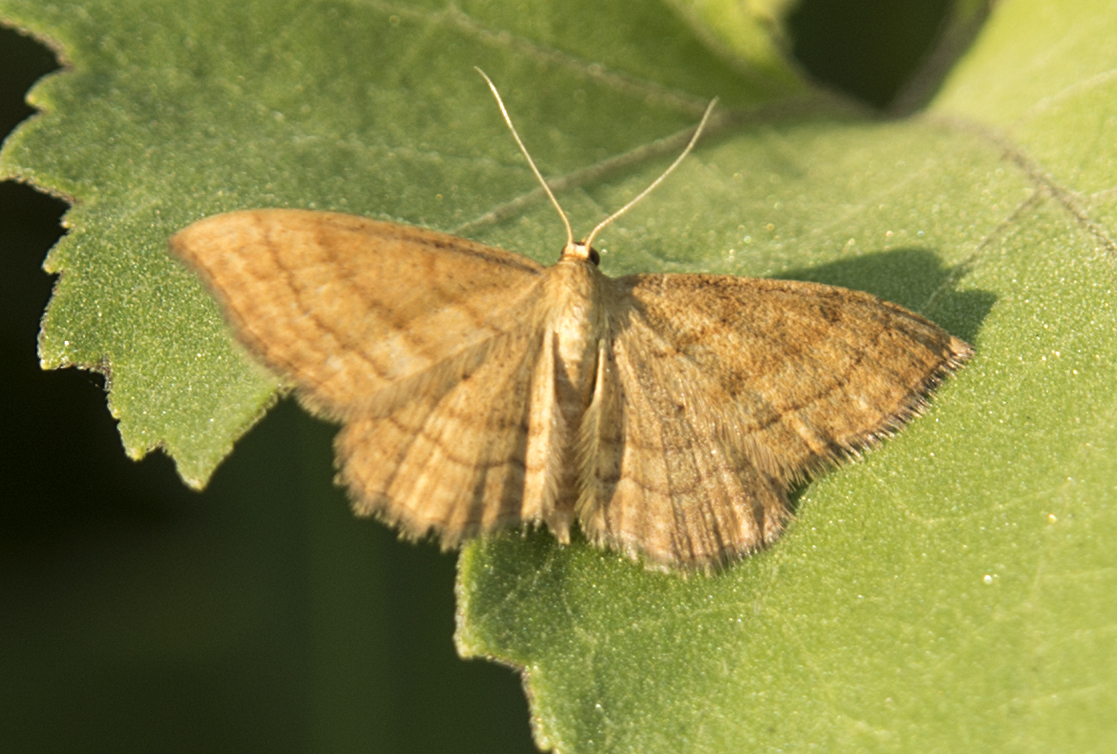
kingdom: Animalia
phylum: Arthropoda
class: Insecta
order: Lepidoptera
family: Geometridae
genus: Idaea
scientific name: Idaea ochrata
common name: Bright wave
